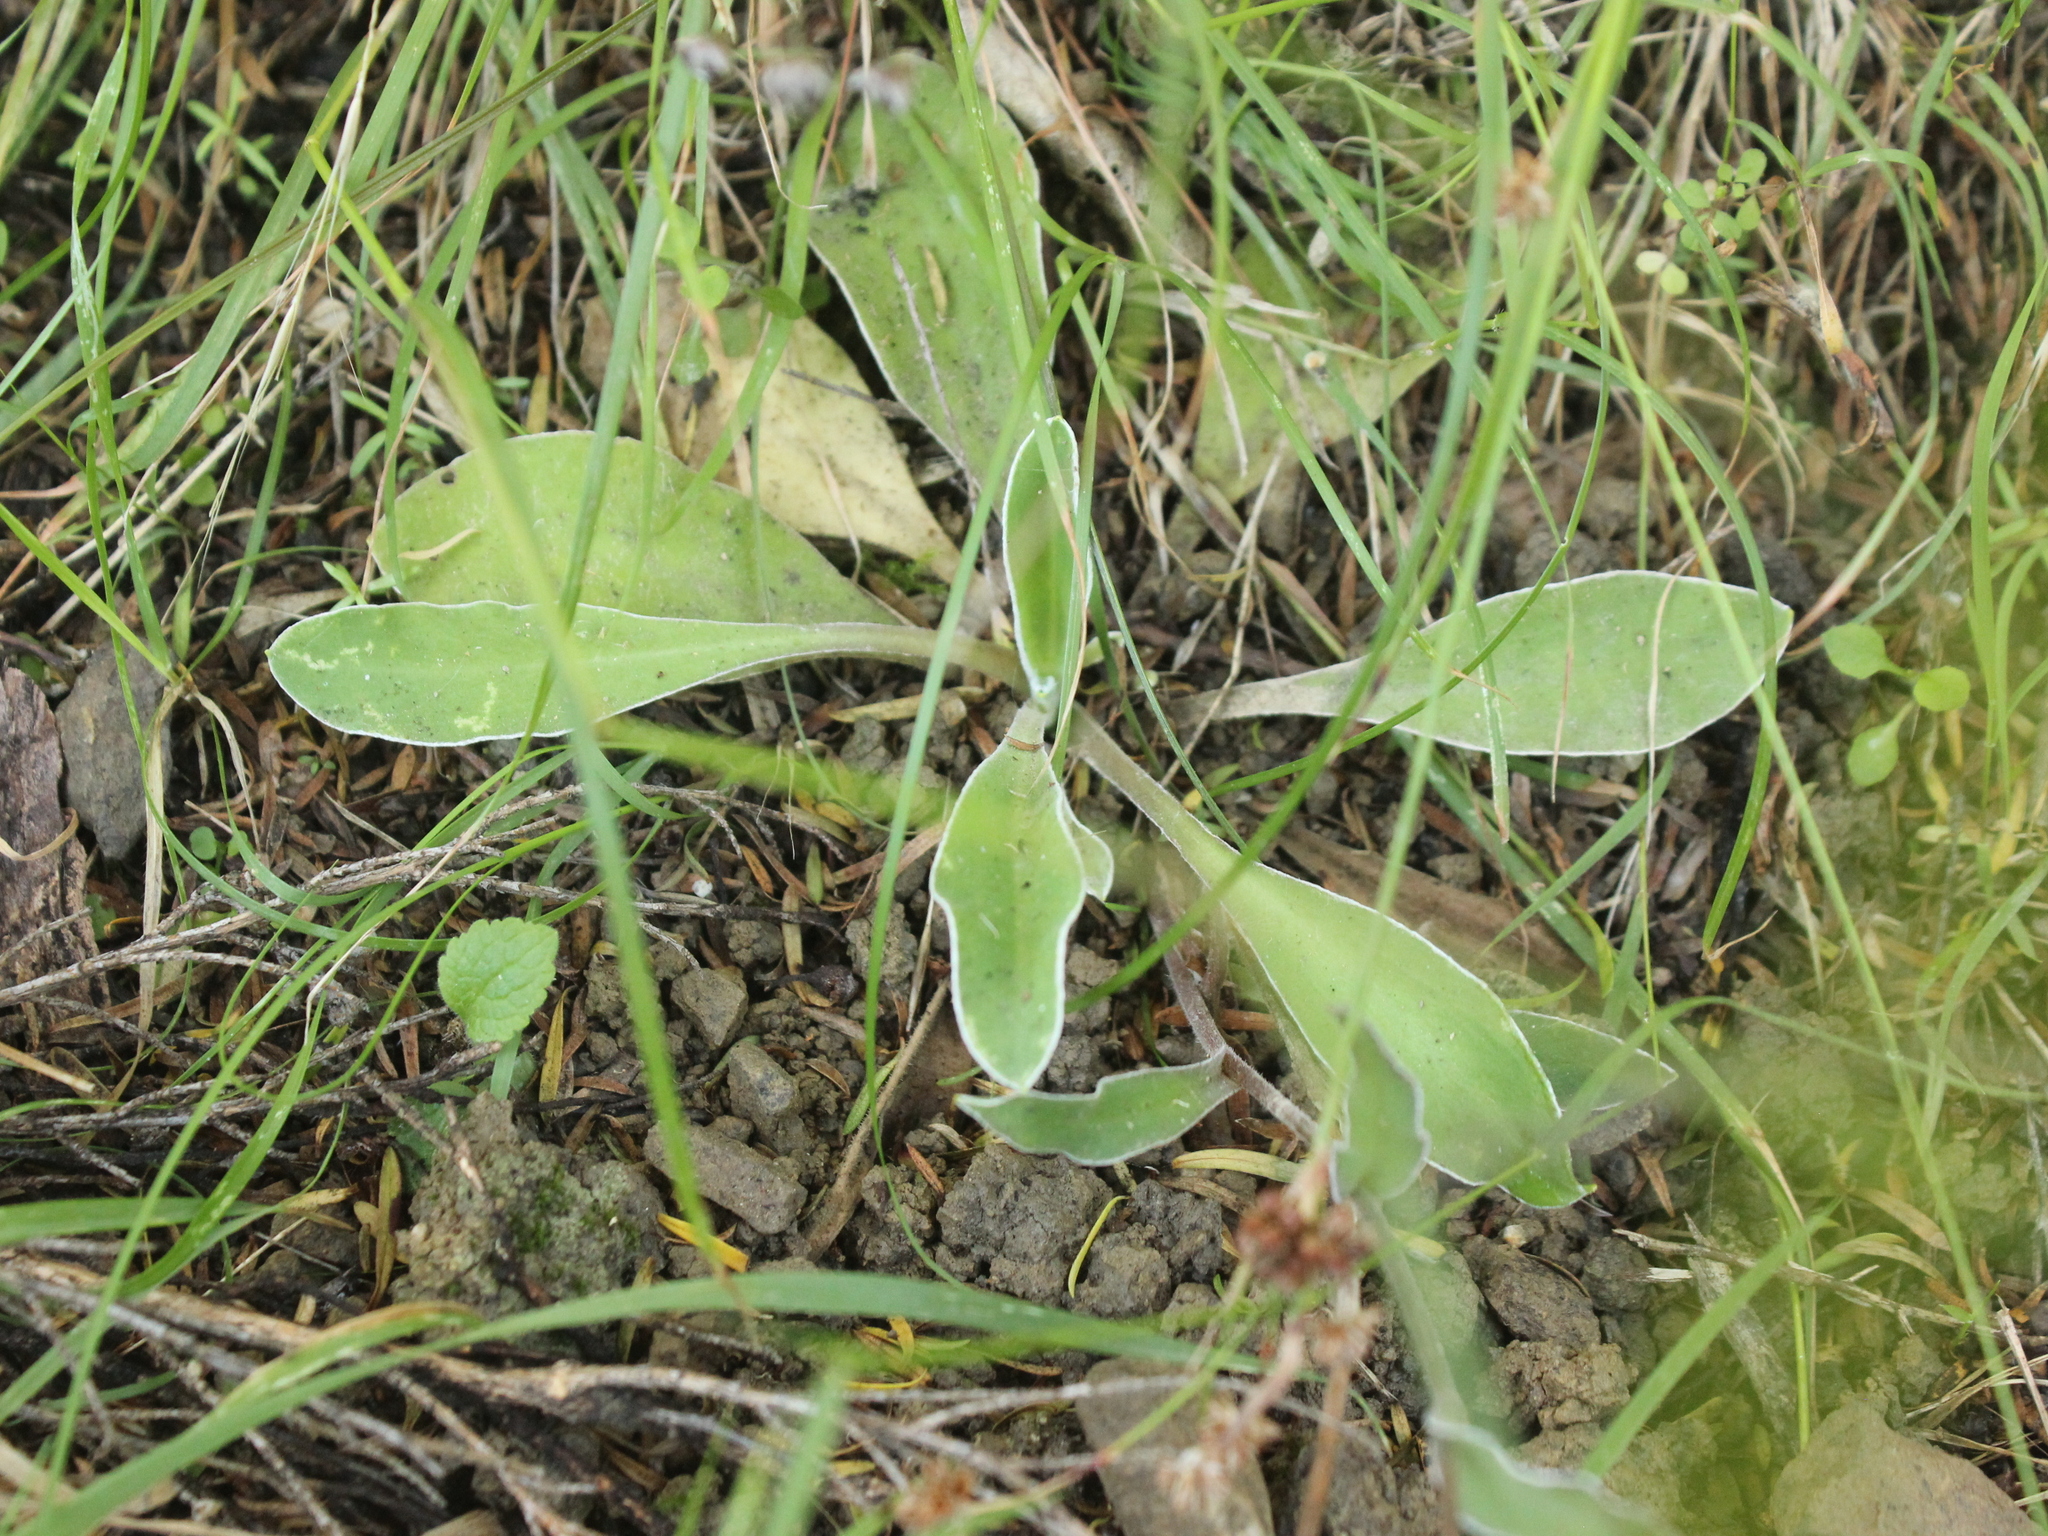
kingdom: Plantae
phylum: Tracheophyta
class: Magnoliopsida
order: Asterales
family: Asteraceae
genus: Craspedia
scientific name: Craspedia uniflora
